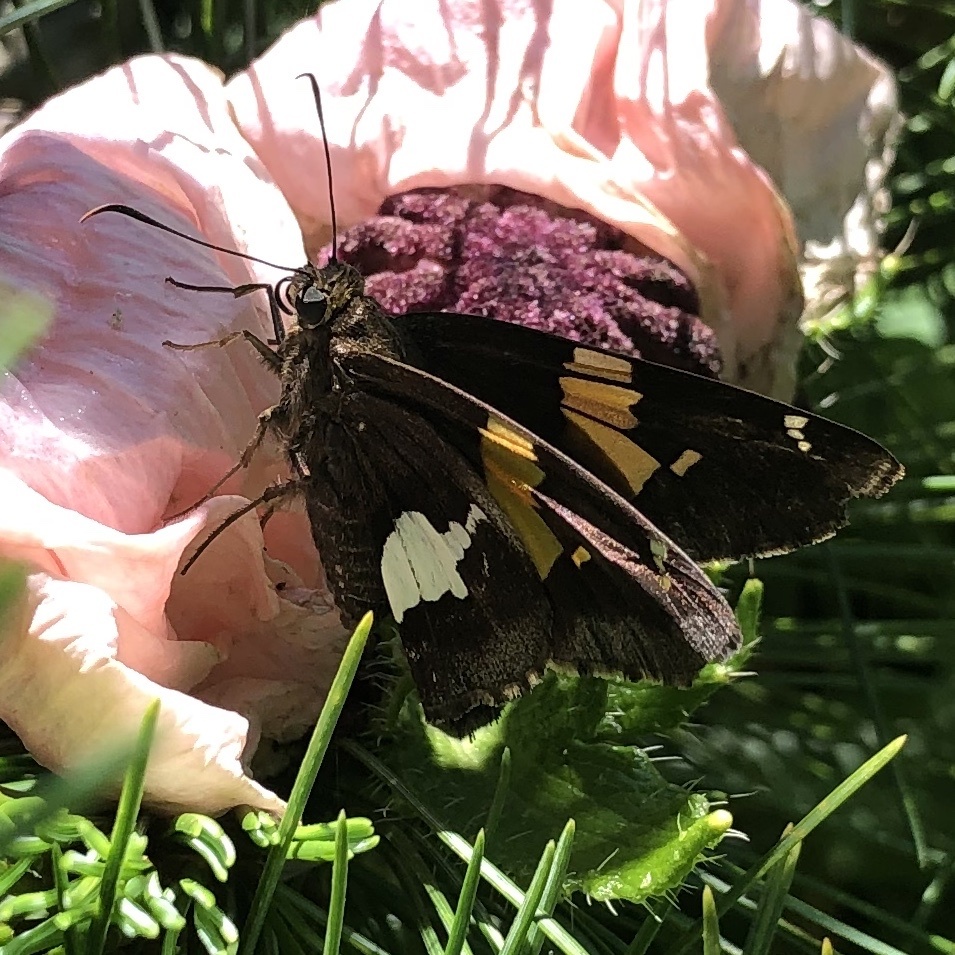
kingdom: Animalia
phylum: Arthropoda
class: Insecta
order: Lepidoptera
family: Hesperiidae
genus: Epargyreus
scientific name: Epargyreus clarus
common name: Silver-spotted skipper
